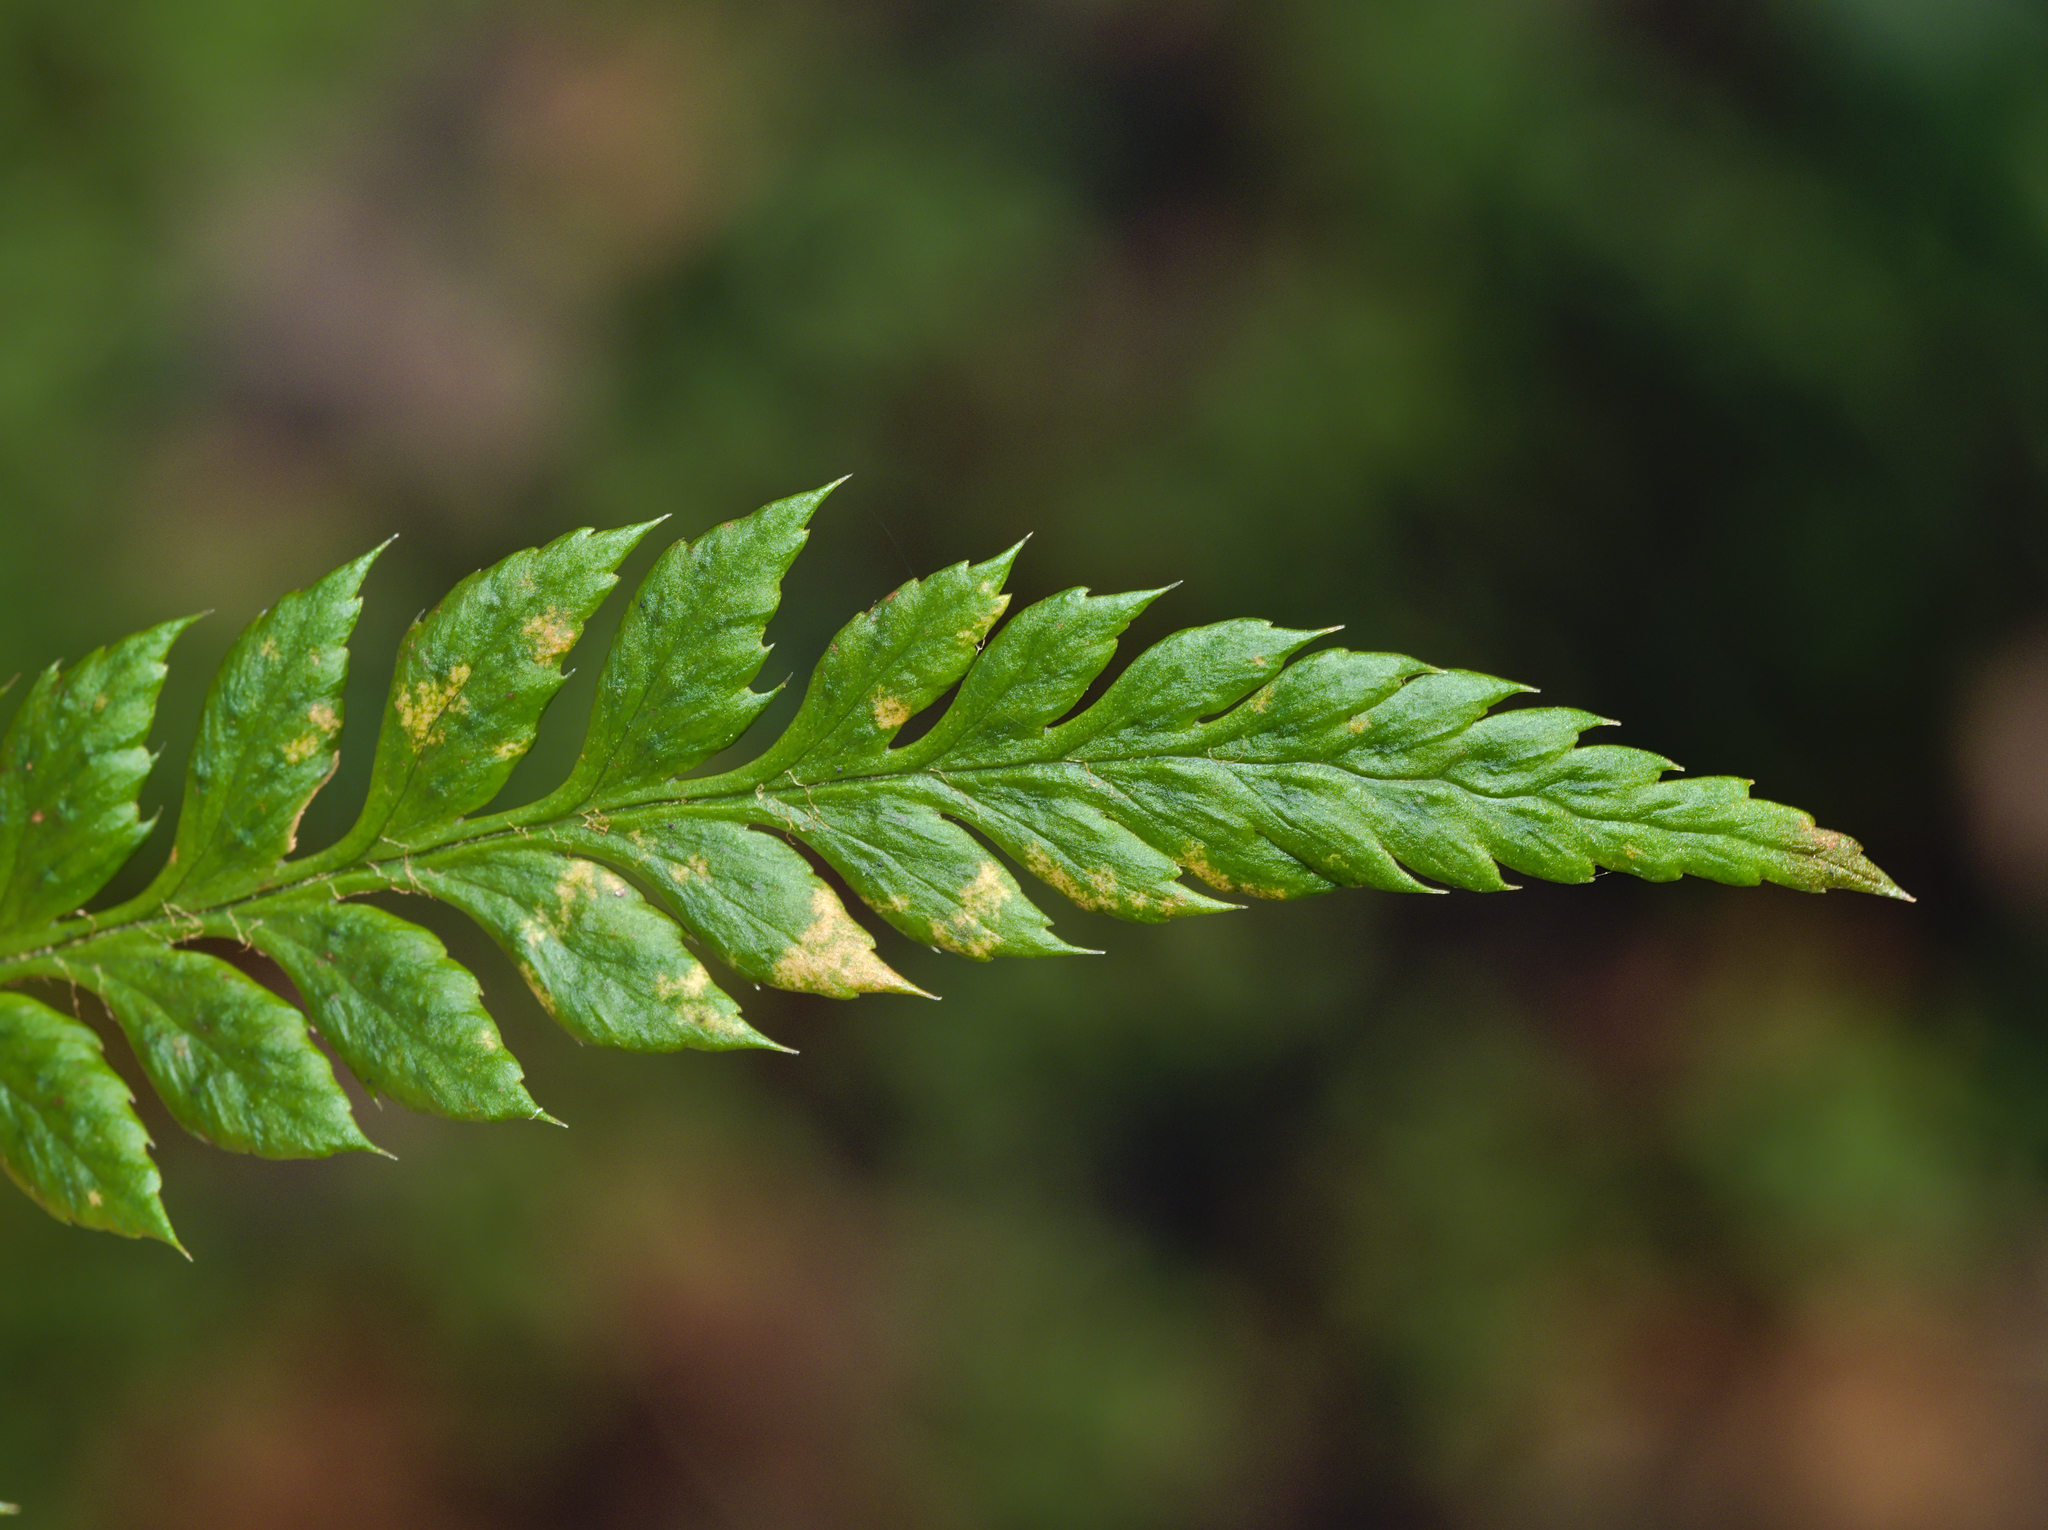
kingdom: Plantae
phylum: Tracheophyta
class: Polypodiopsida
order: Polypodiales
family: Dryopteridaceae
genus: Polystichum
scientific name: Polystichum aculeatum
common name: Hard shield-fern
